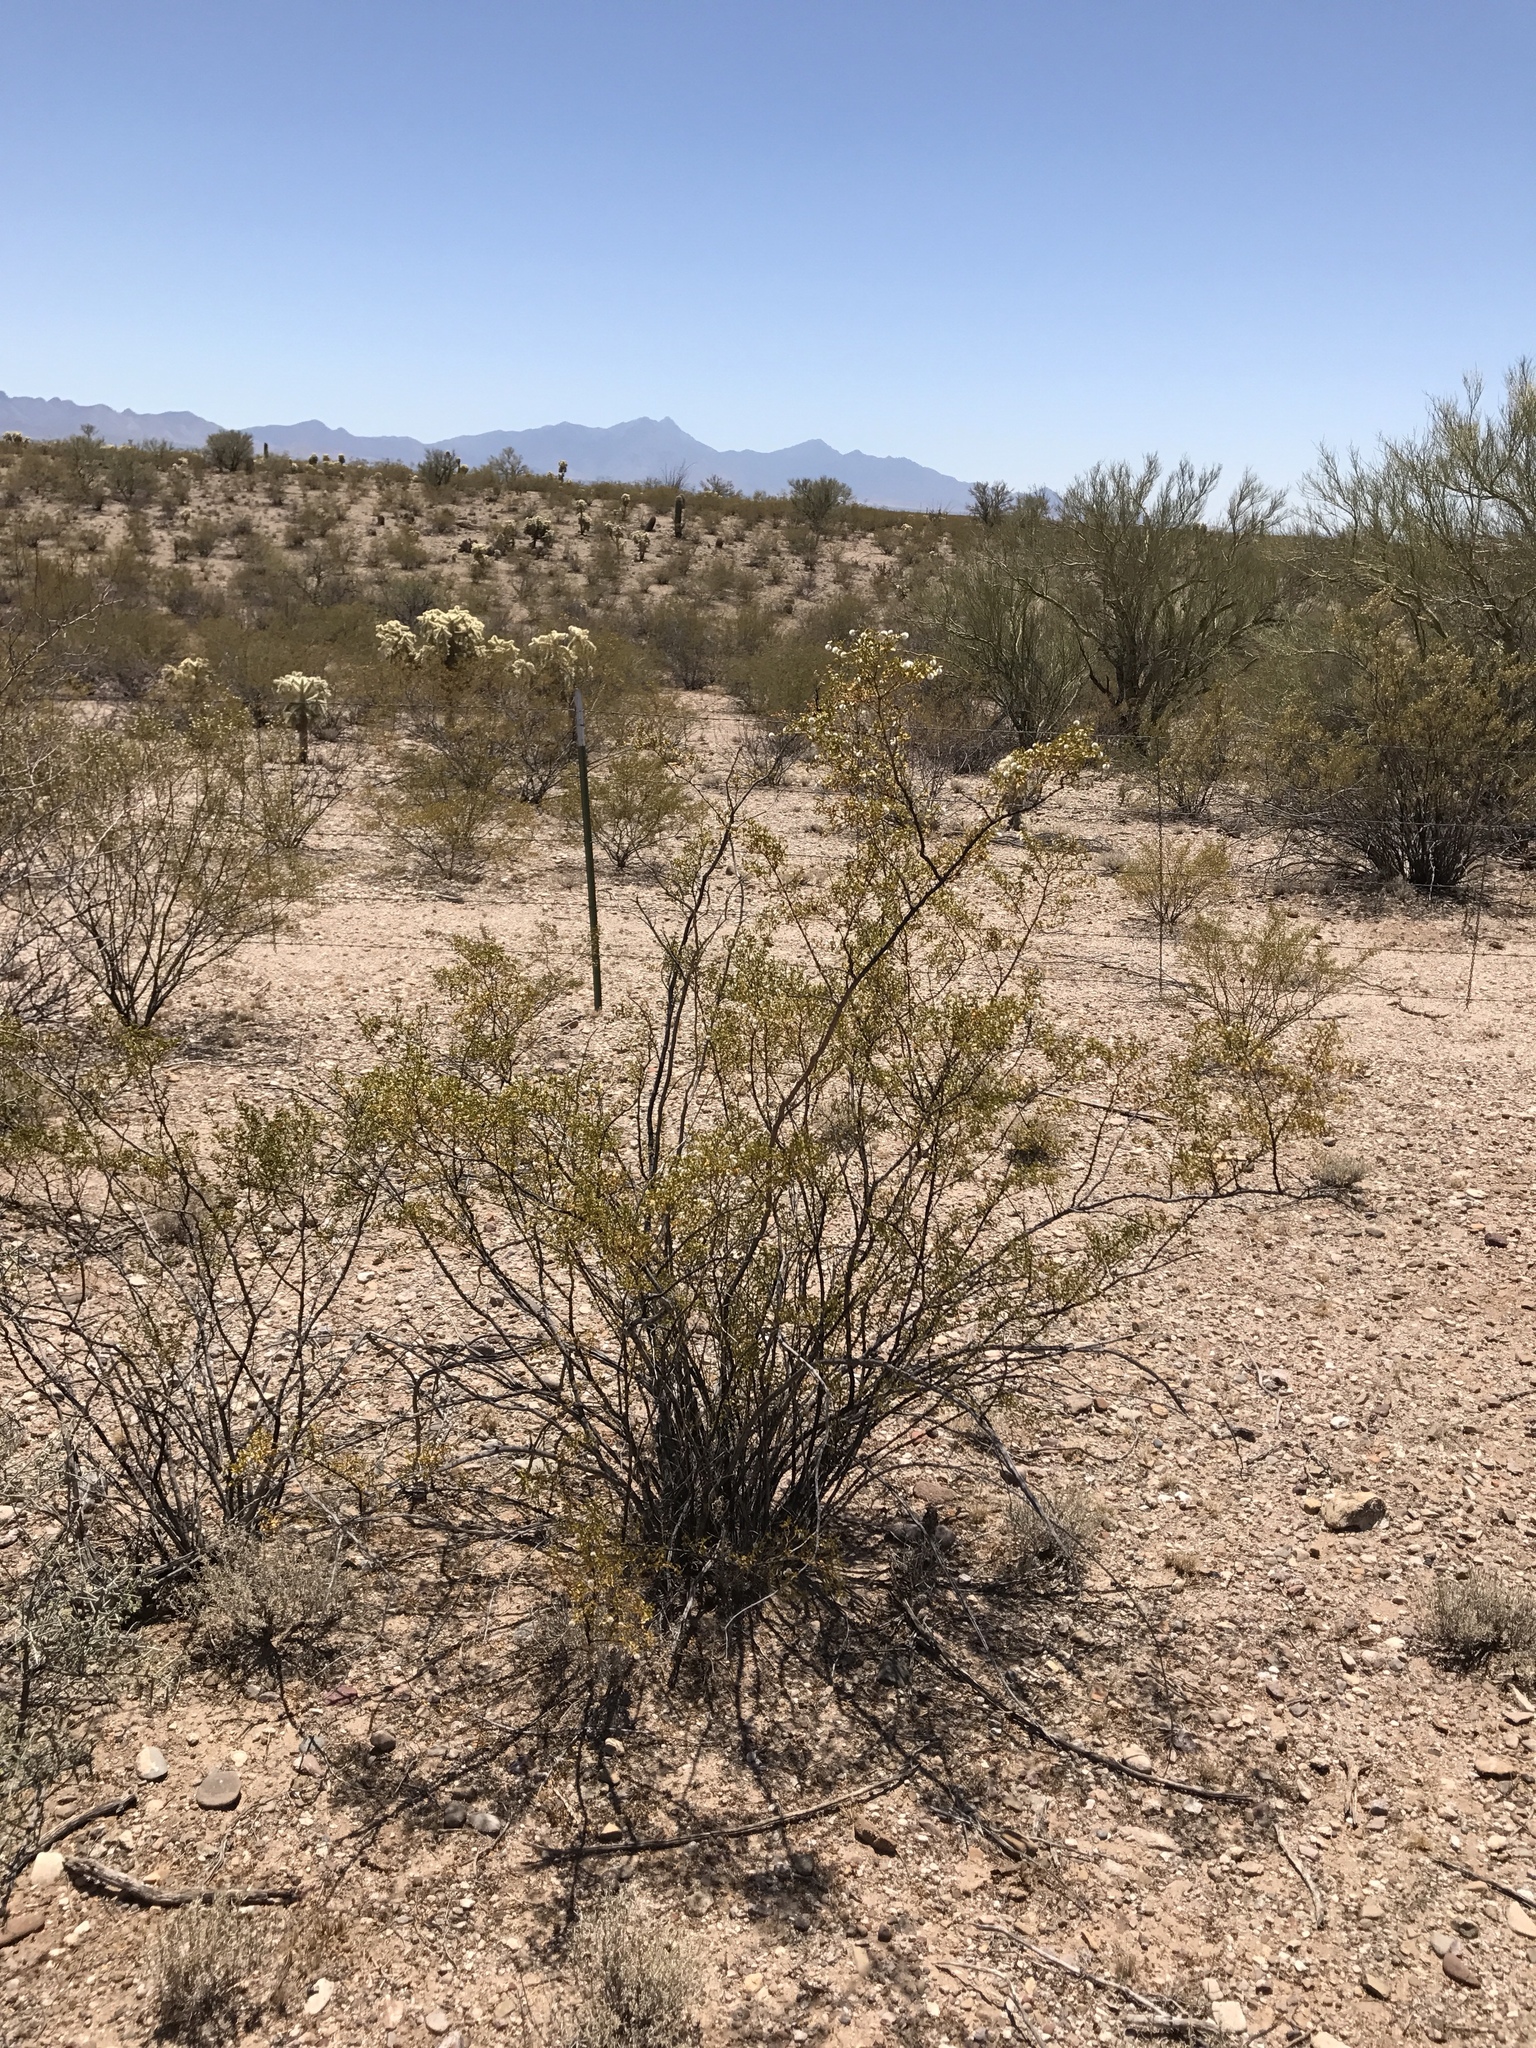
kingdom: Plantae
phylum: Tracheophyta
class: Magnoliopsida
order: Zygophyllales
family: Zygophyllaceae
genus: Larrea
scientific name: Larrea tridentata
